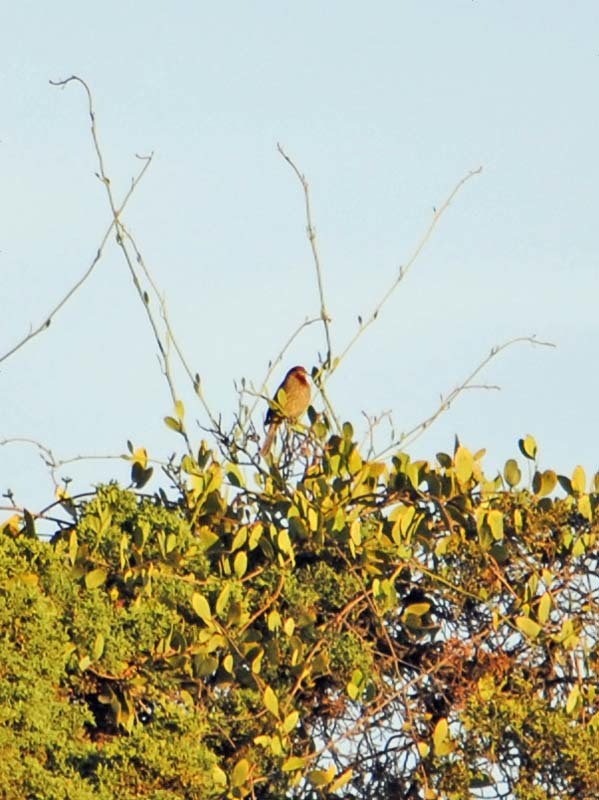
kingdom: Animalia
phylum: Chordata
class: Aves
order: Passeriformes
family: Fringillidae
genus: Haemorhous
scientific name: Haemorhous mexicanus
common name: House finch
